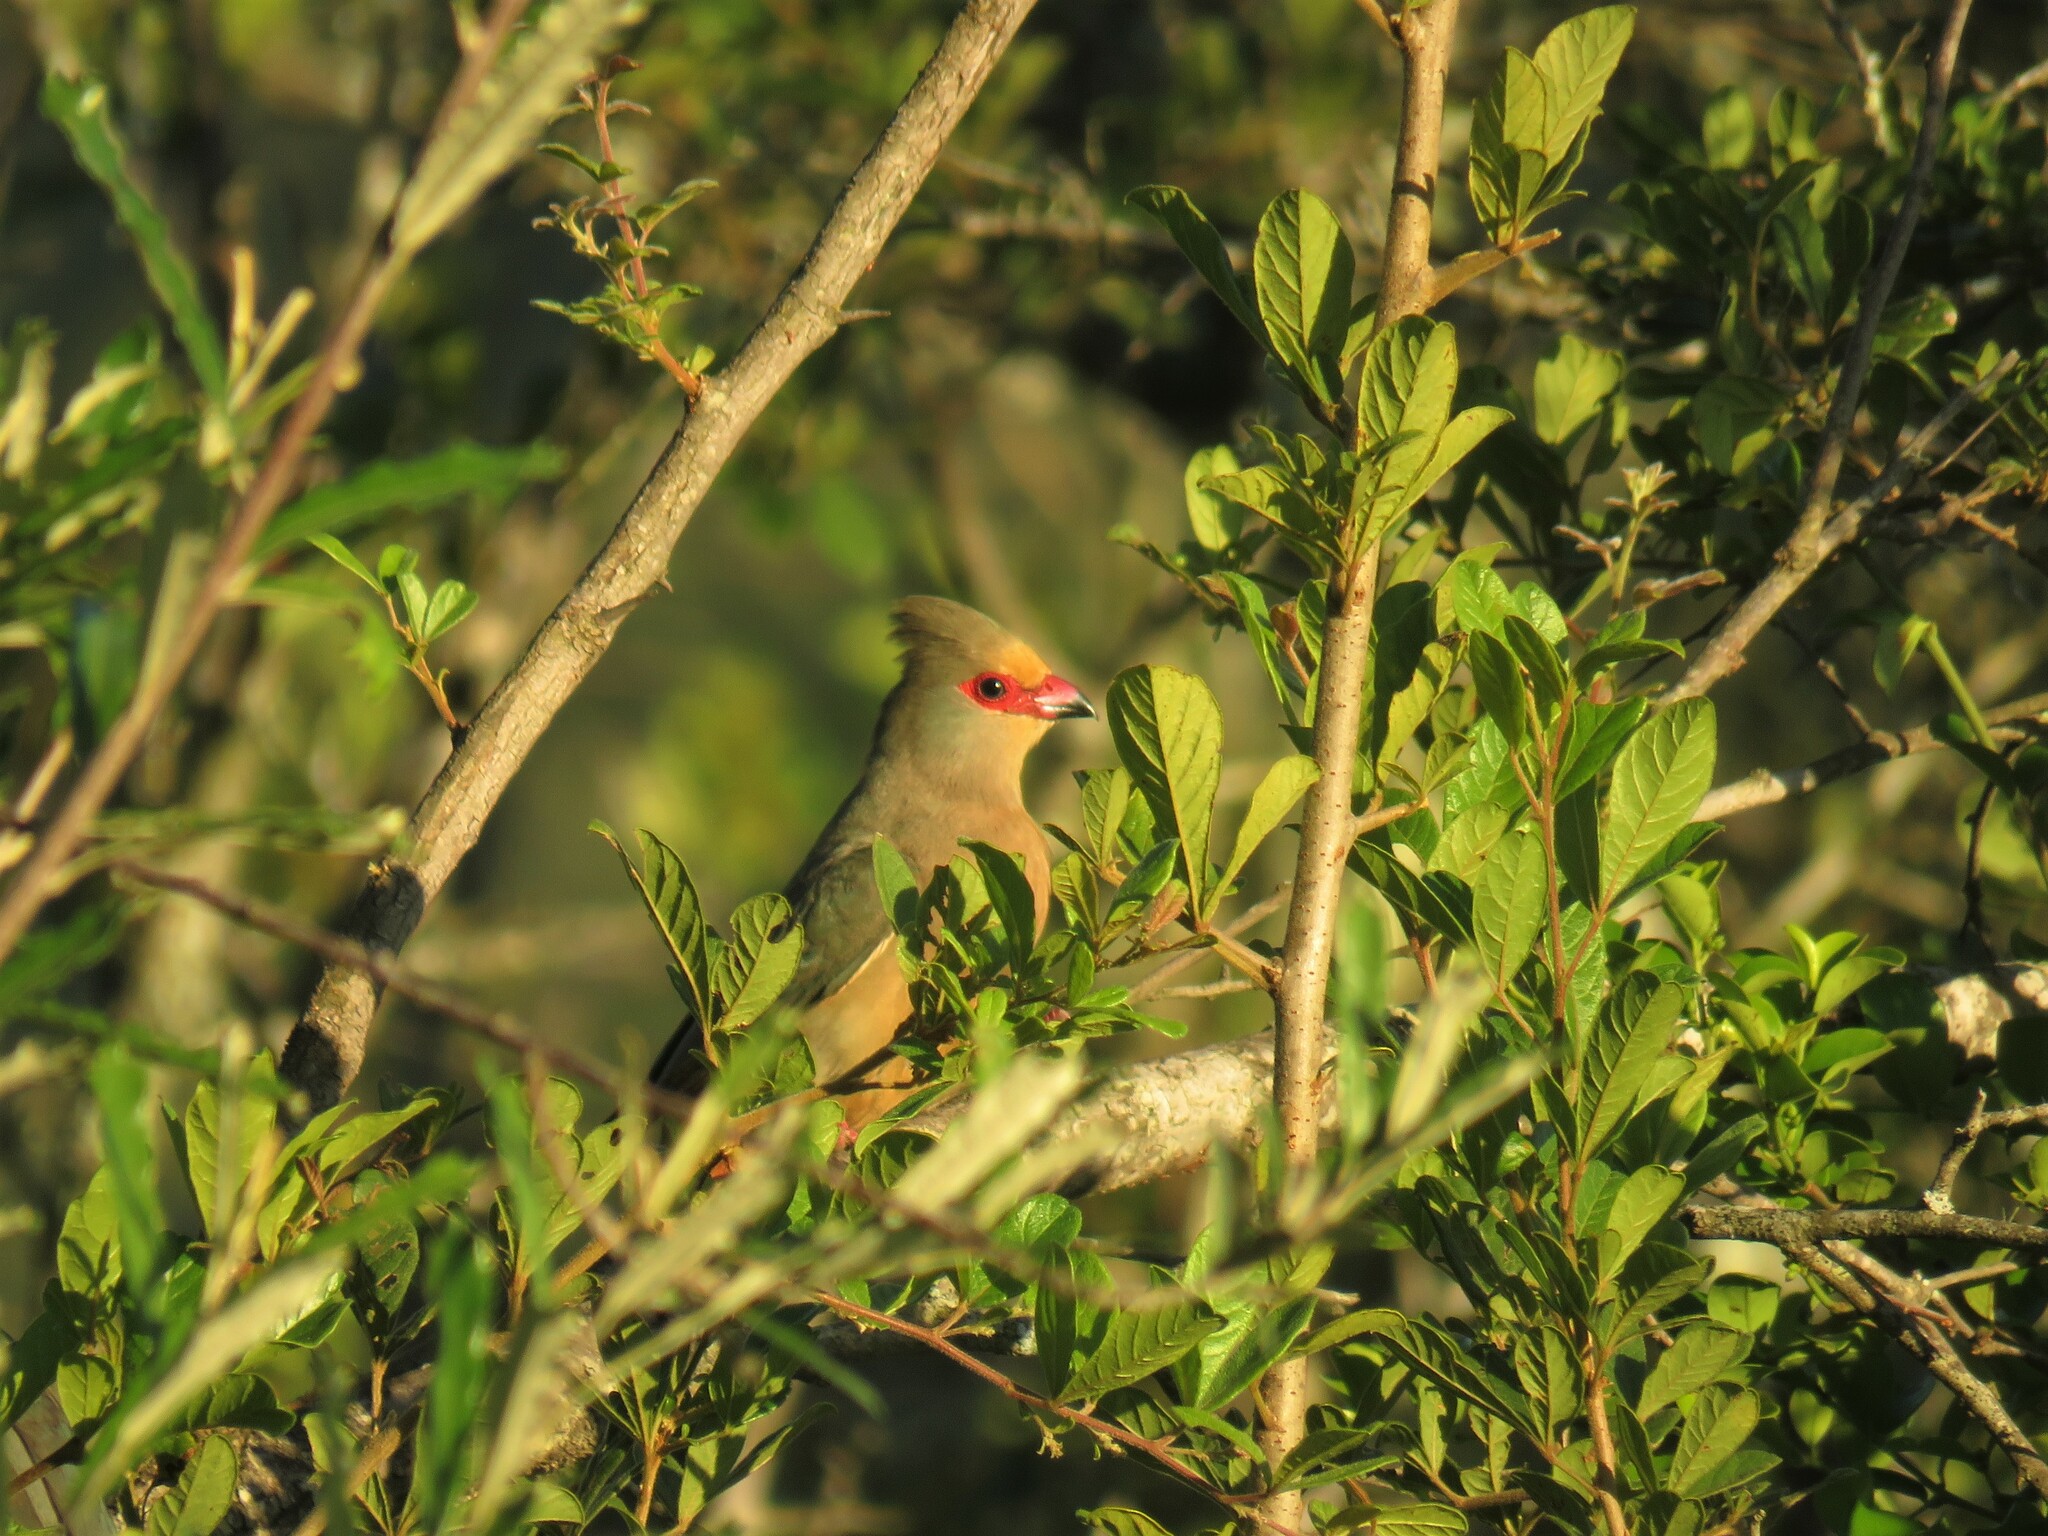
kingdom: Animalia
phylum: Chordata
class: Aves
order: Coliiformes
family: Coliidae
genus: Urocolius
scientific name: Urocolius indicus
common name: Red-faced mousebird
